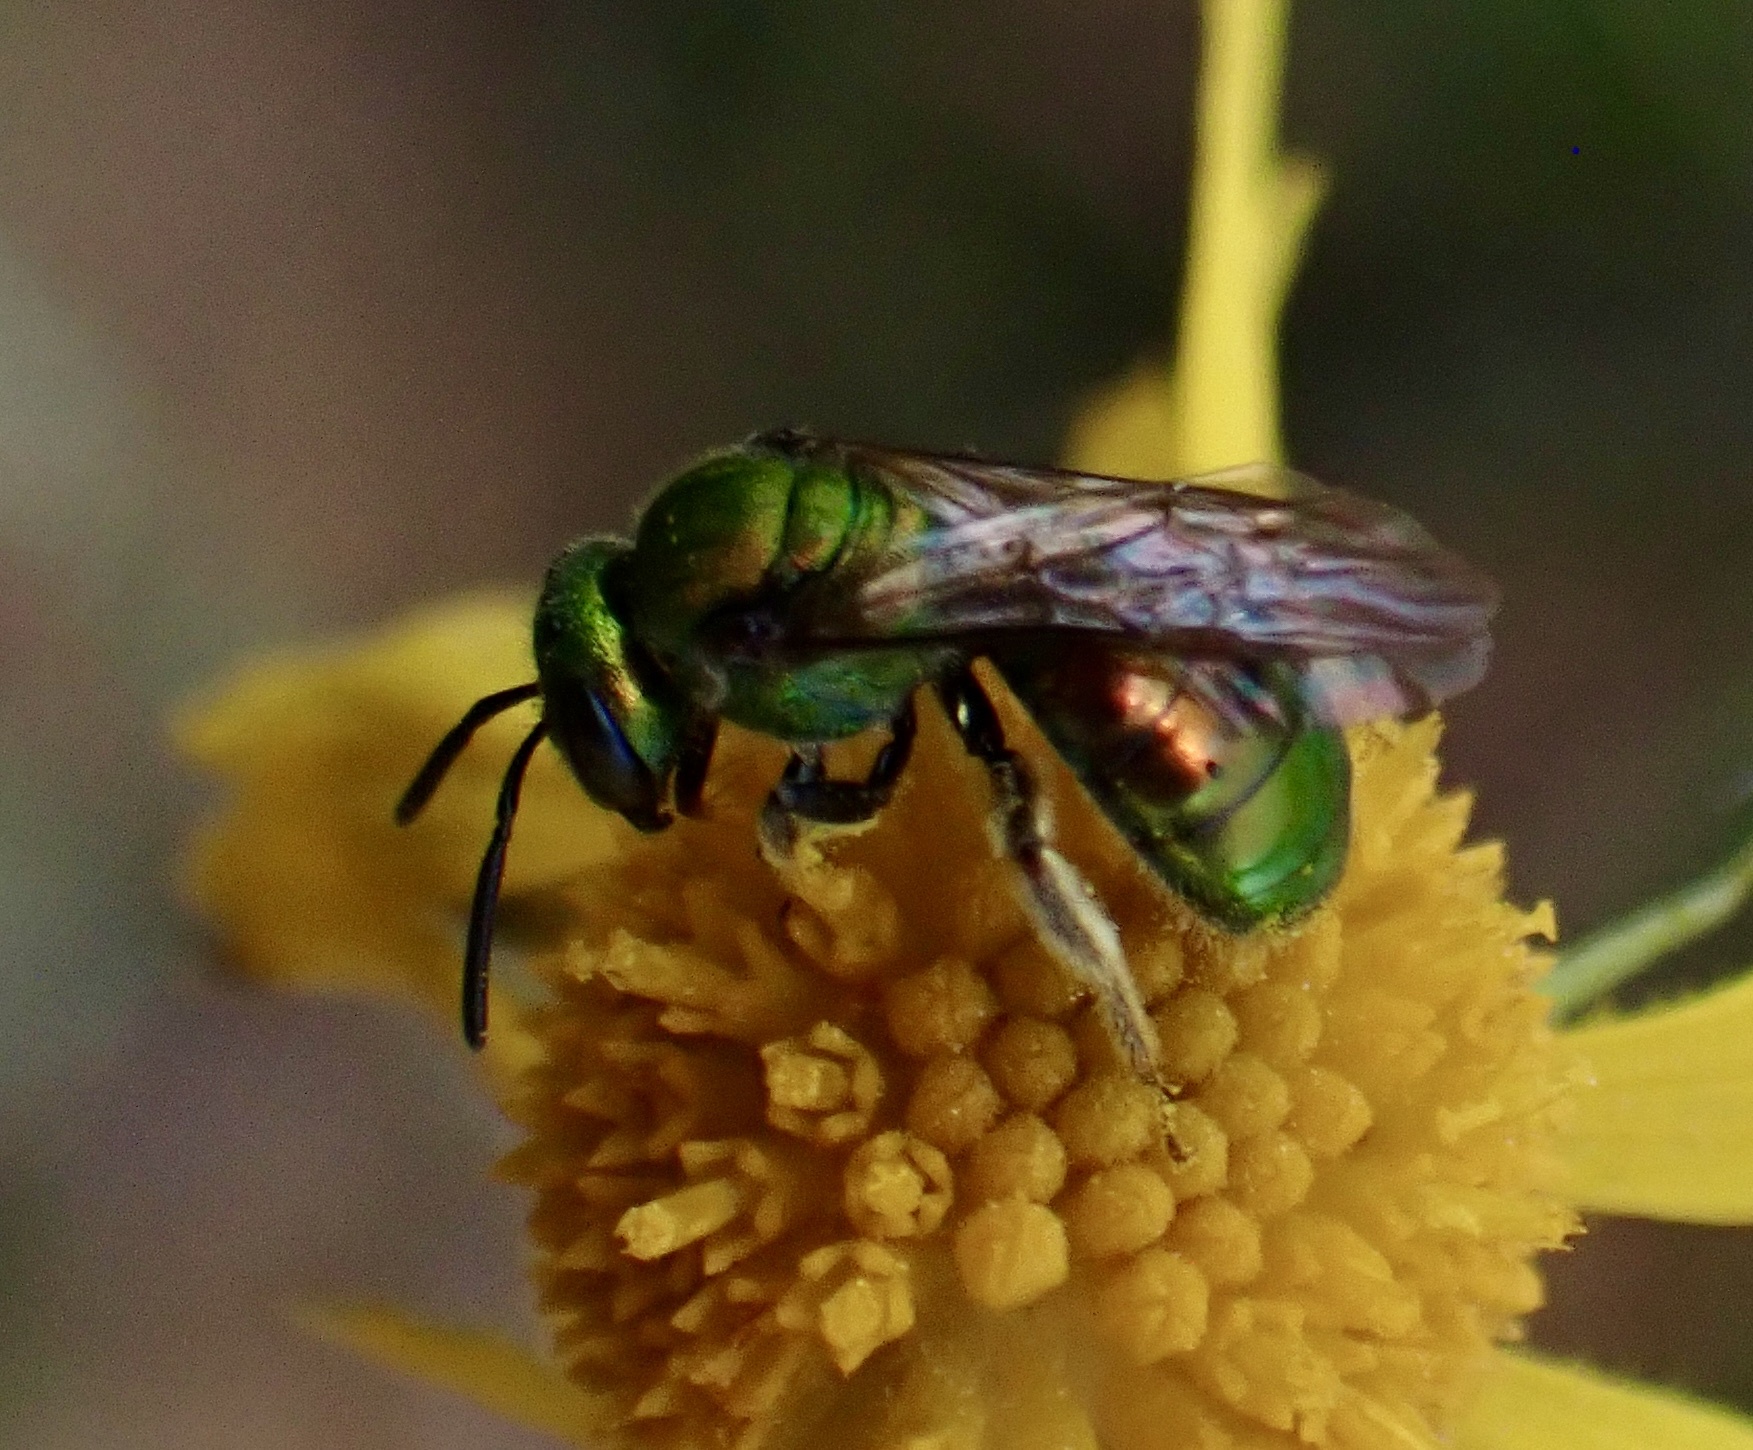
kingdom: Animalia
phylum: Arthropoda
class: Insecta
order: Hymenoptera
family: Halictidae
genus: Augochlora
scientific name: Augochlora pura
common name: Pure green sweat bee
